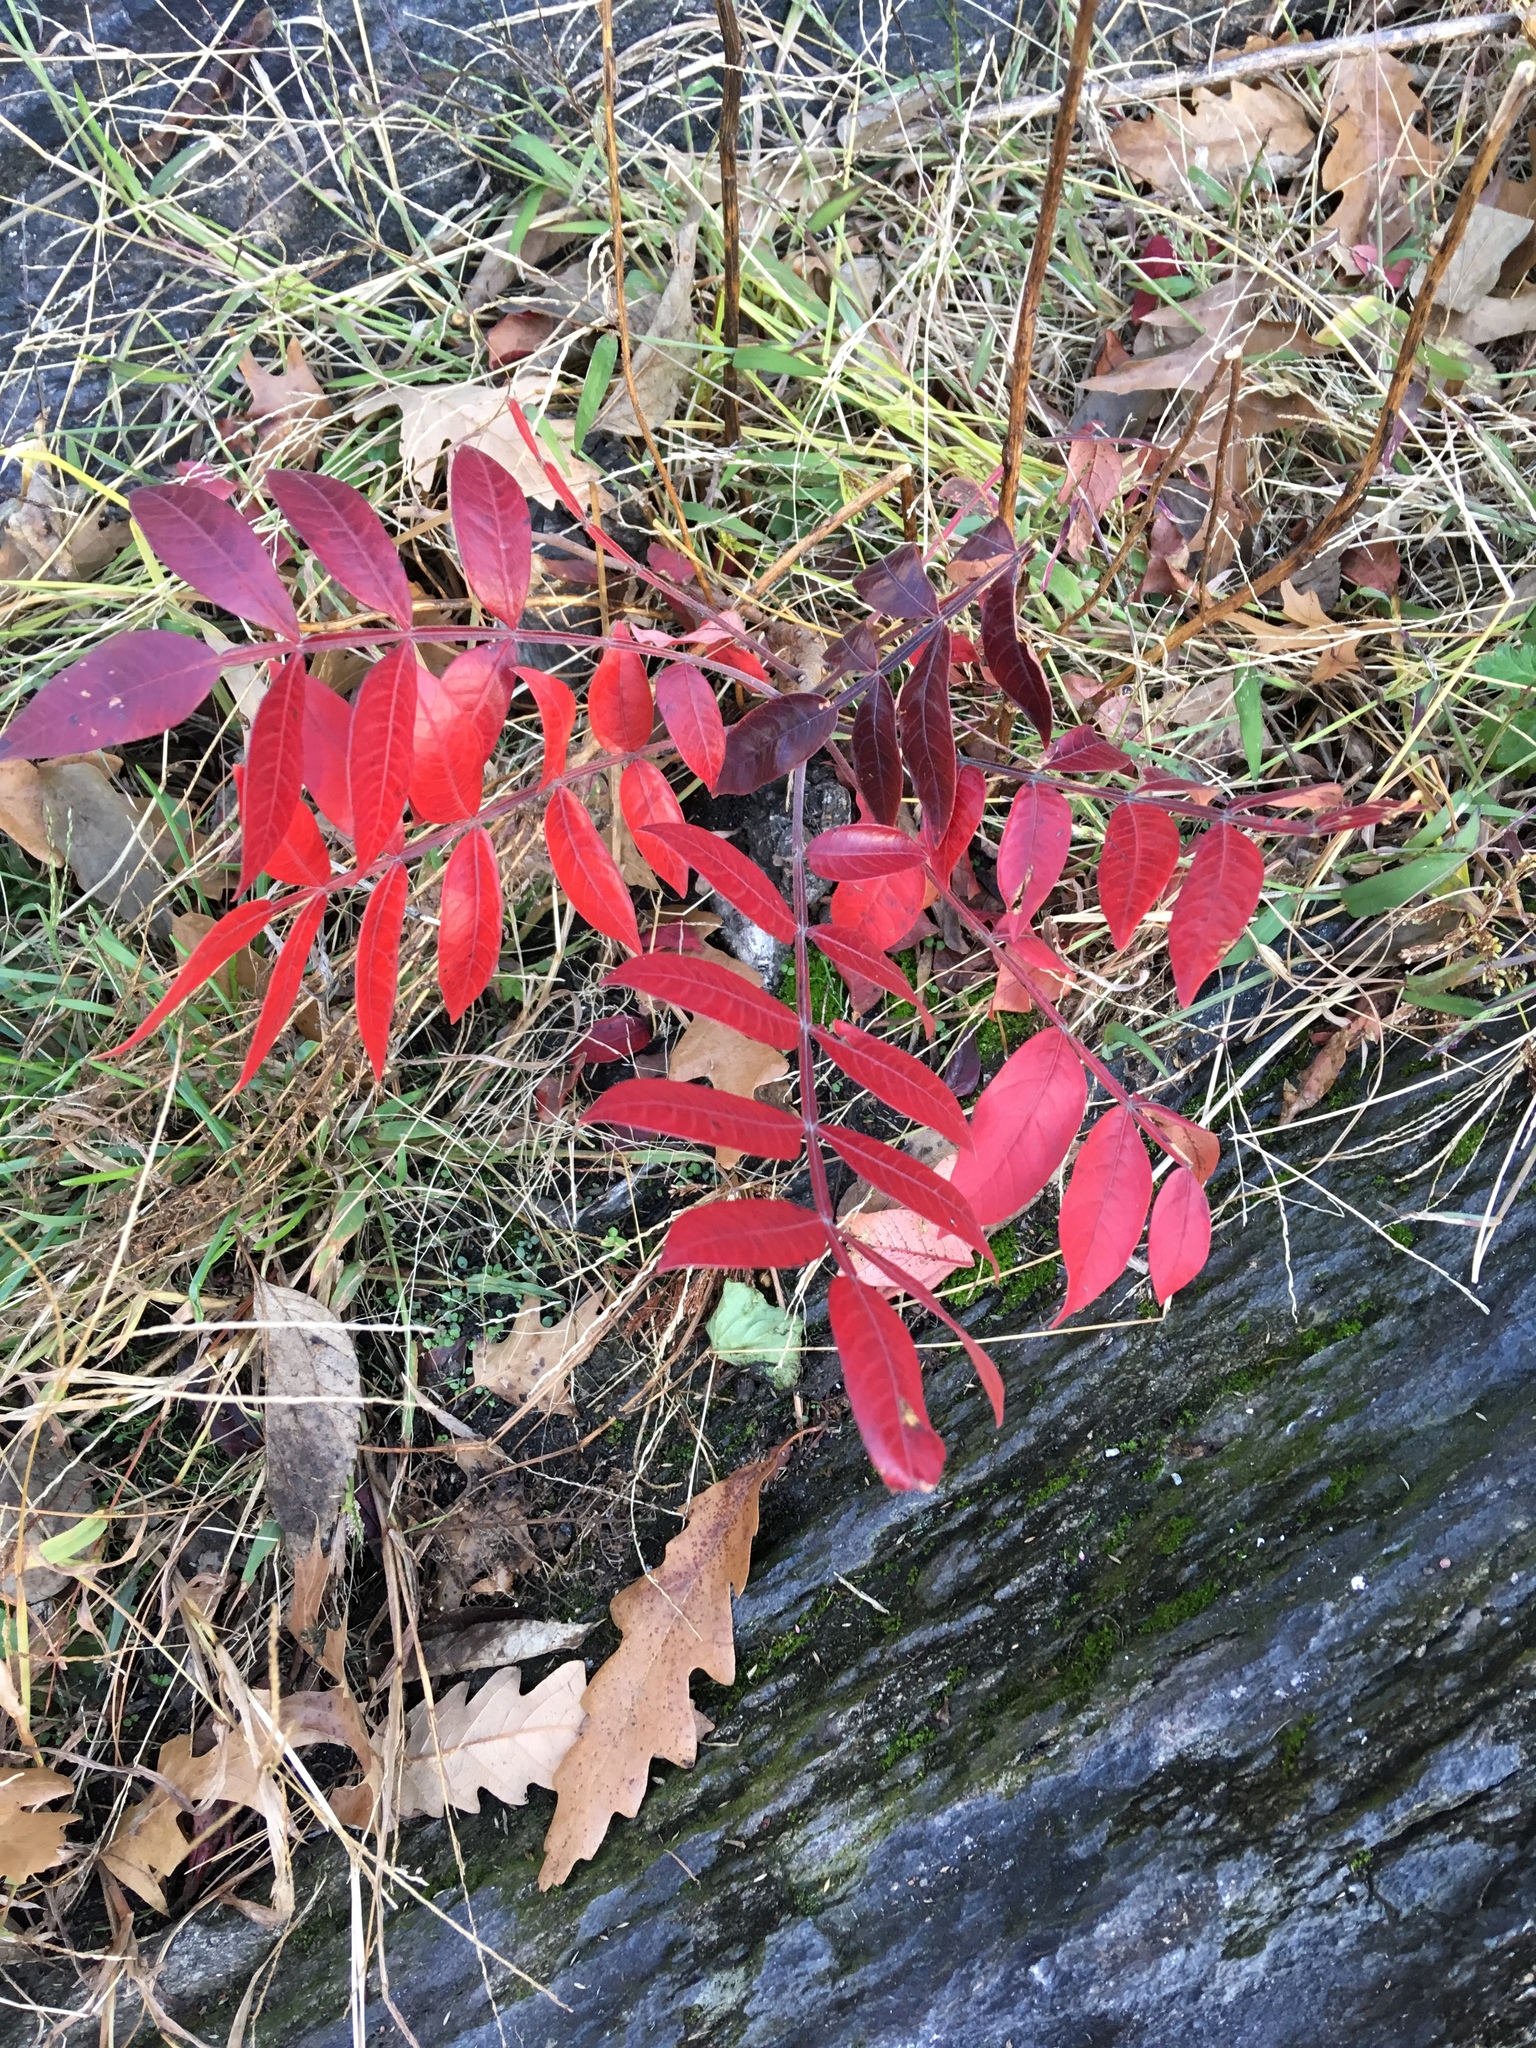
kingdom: Plantae
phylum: Tracheophyta
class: Magnoliopsida
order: Sapindales
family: Anacardiaceae
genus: Rhus
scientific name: Rhus copallina
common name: Shining sumac
